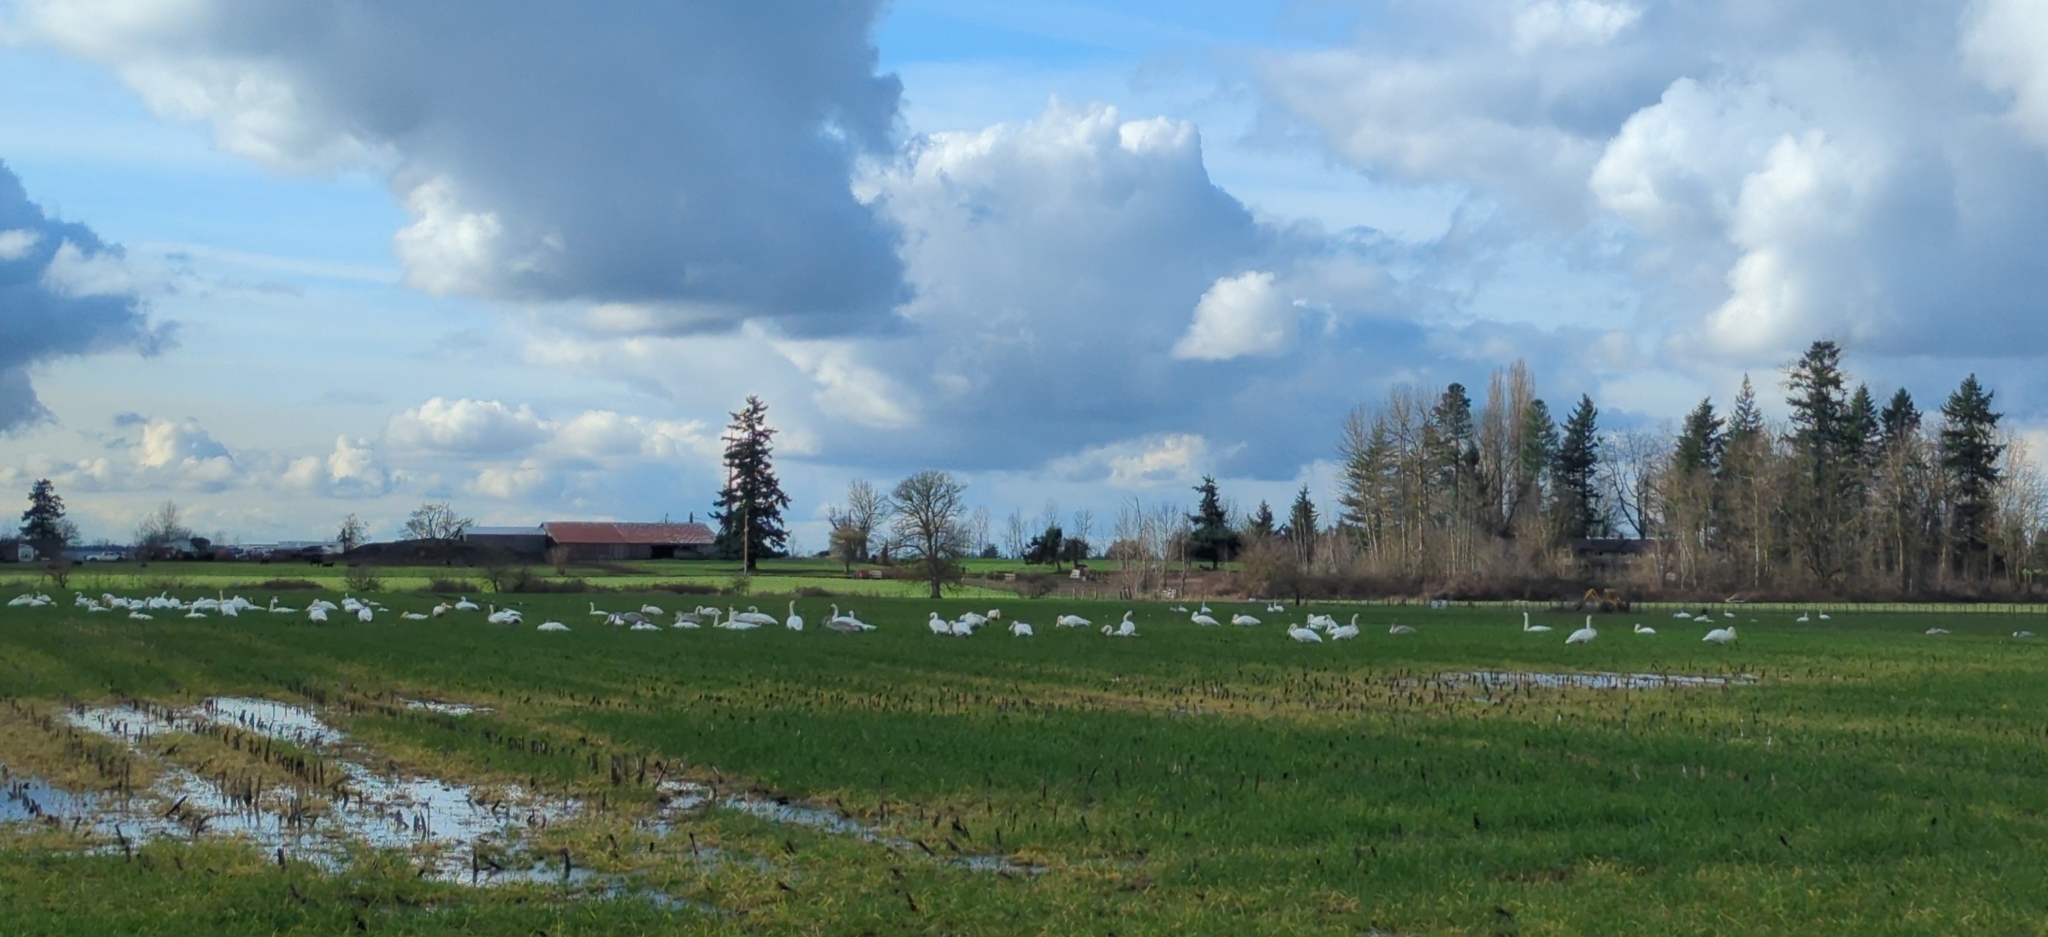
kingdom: Animalia
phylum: Chordata
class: Aves
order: Anseriformes
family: Anatidae
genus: Cygnus
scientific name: Cygnus buccinator
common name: Trumpeter swan
